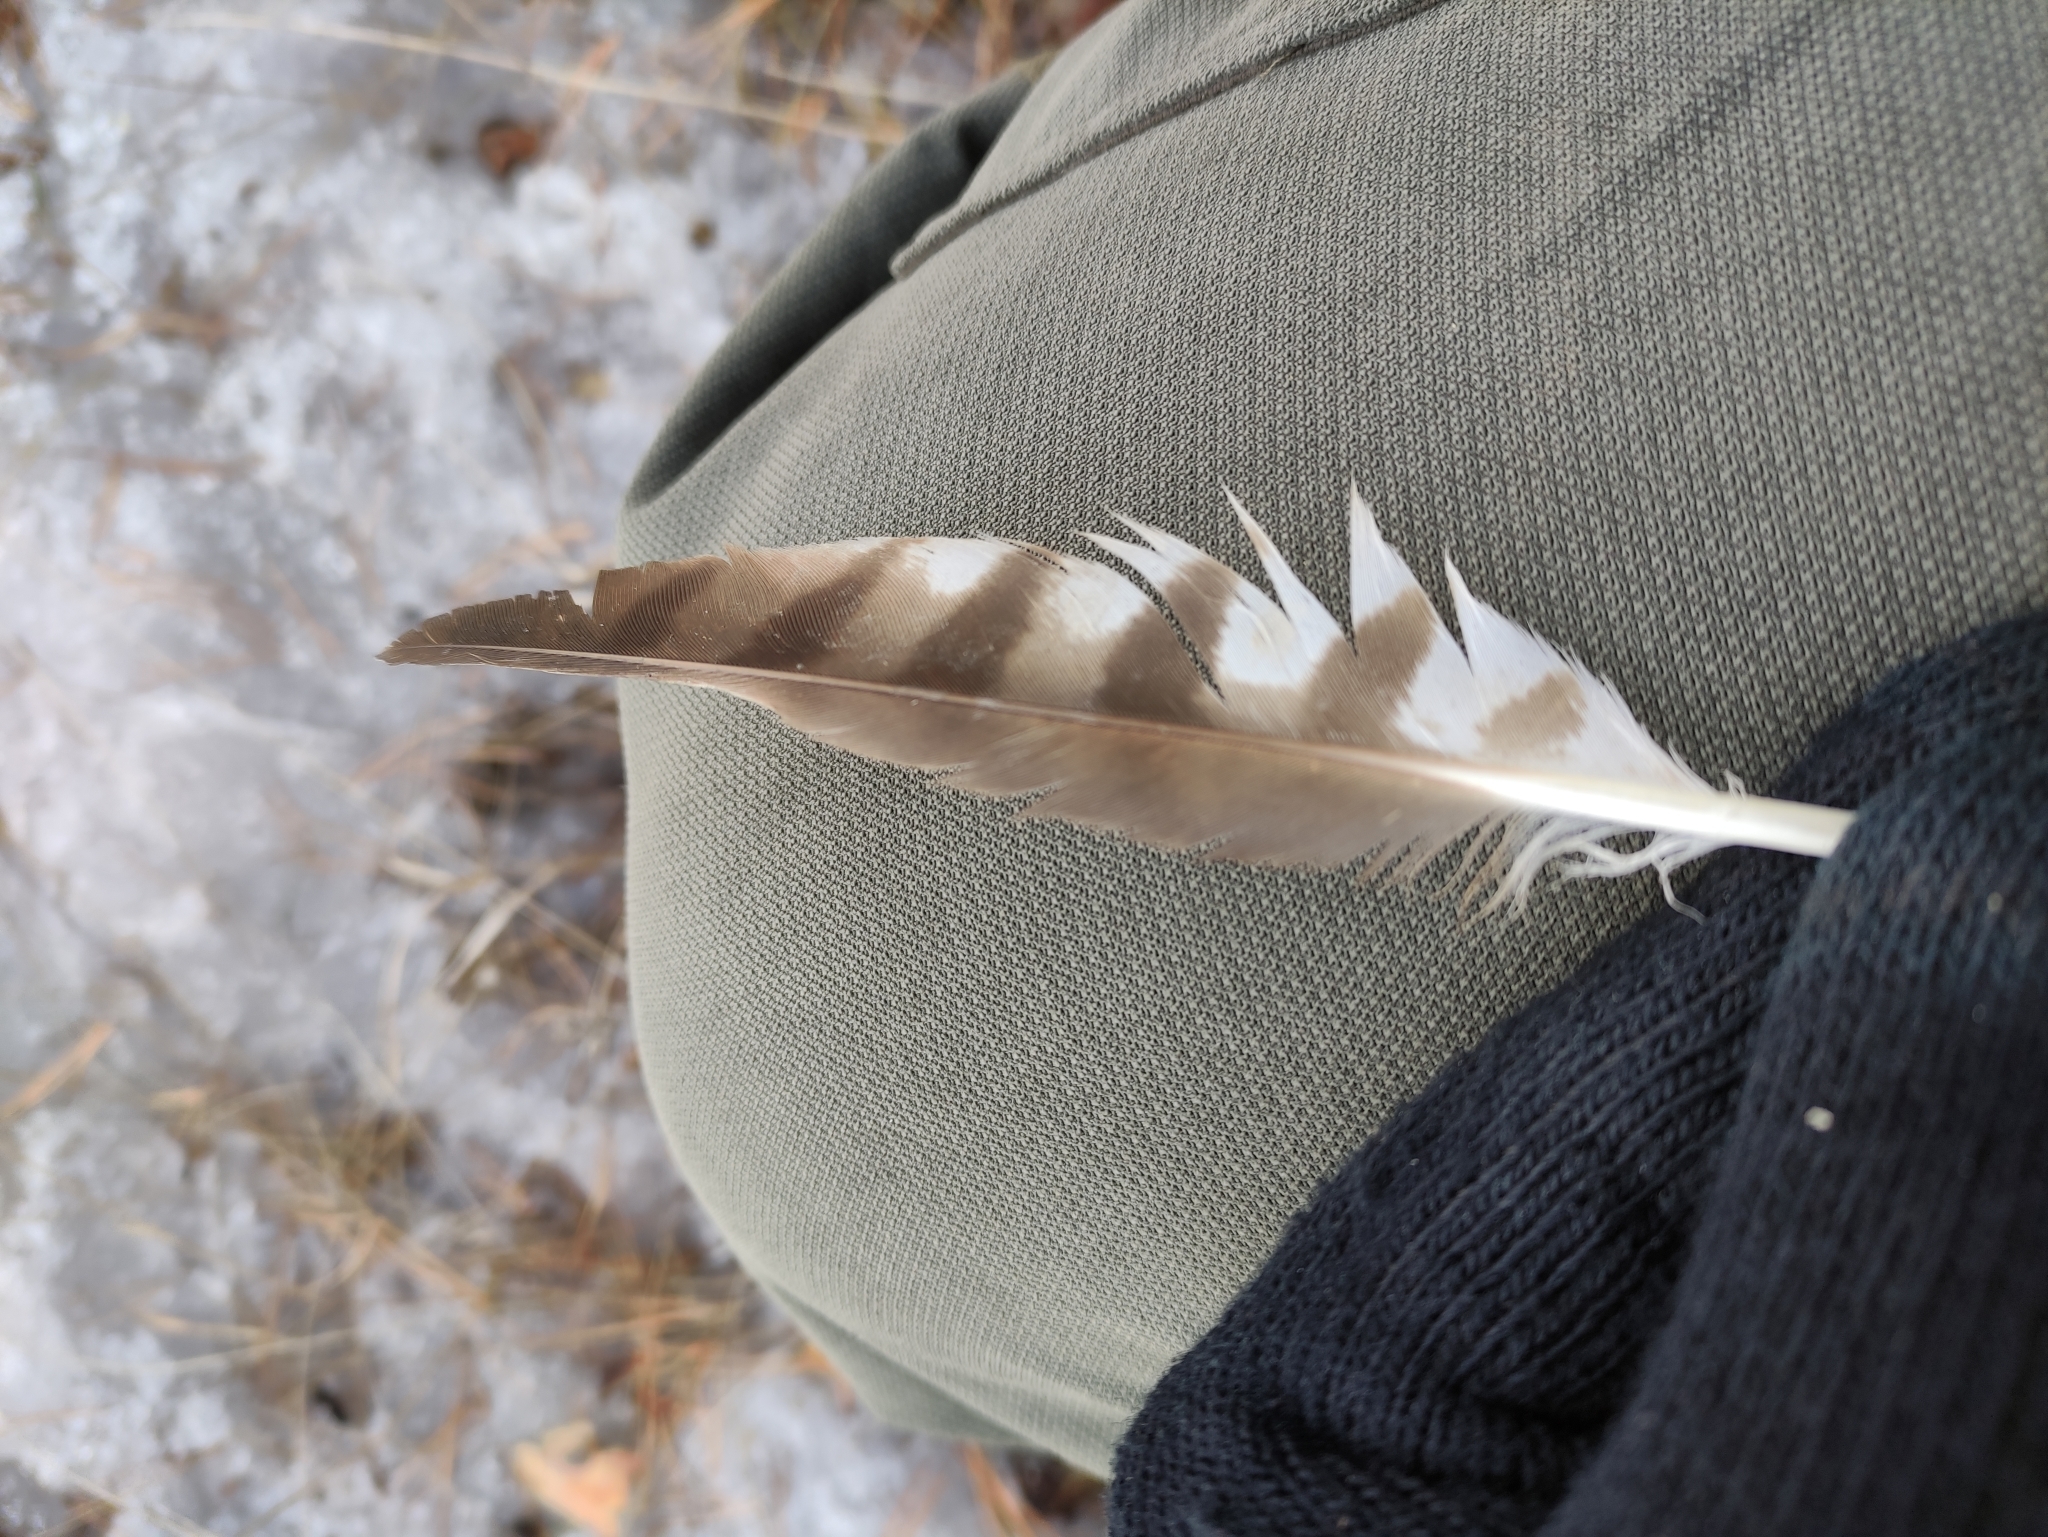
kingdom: Animalia
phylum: Chordata
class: Aves
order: Accipitriformes
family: Accipitridae
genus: Accipiter
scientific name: Accipiter nisus
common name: Eurasian sparrowhawk
